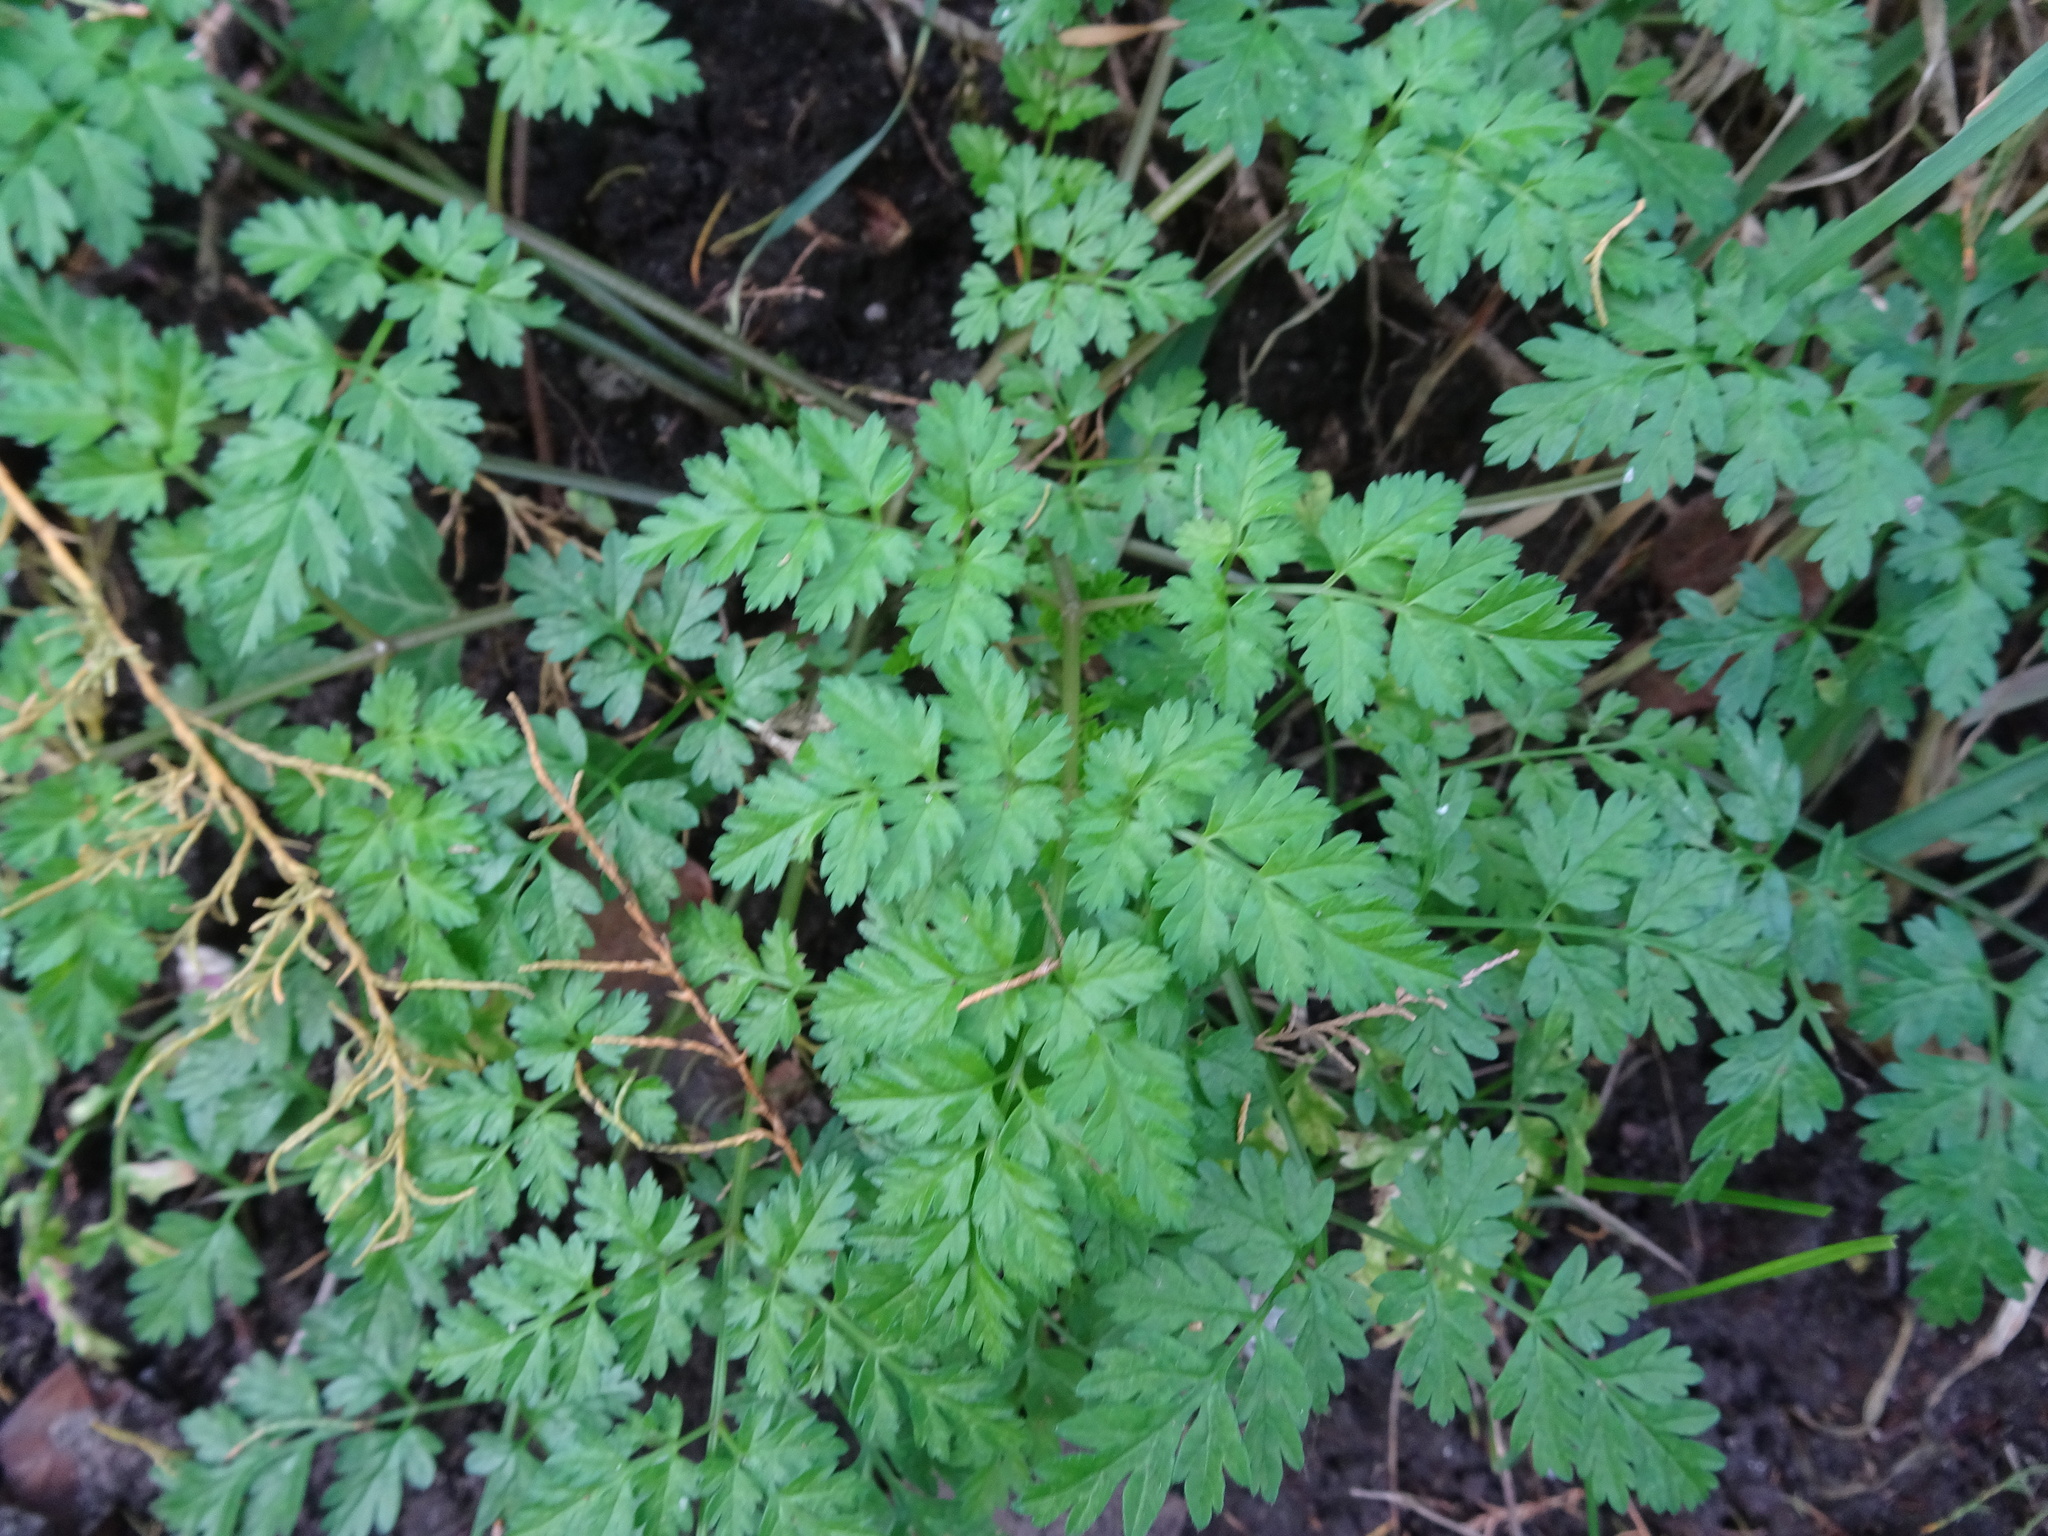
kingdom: Plantae
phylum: Tracheophyta
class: Magnoliopsida
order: Apiales
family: Apiaceae
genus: Anthriscus
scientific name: Anthriscus sylvestris
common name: Cow parsley
